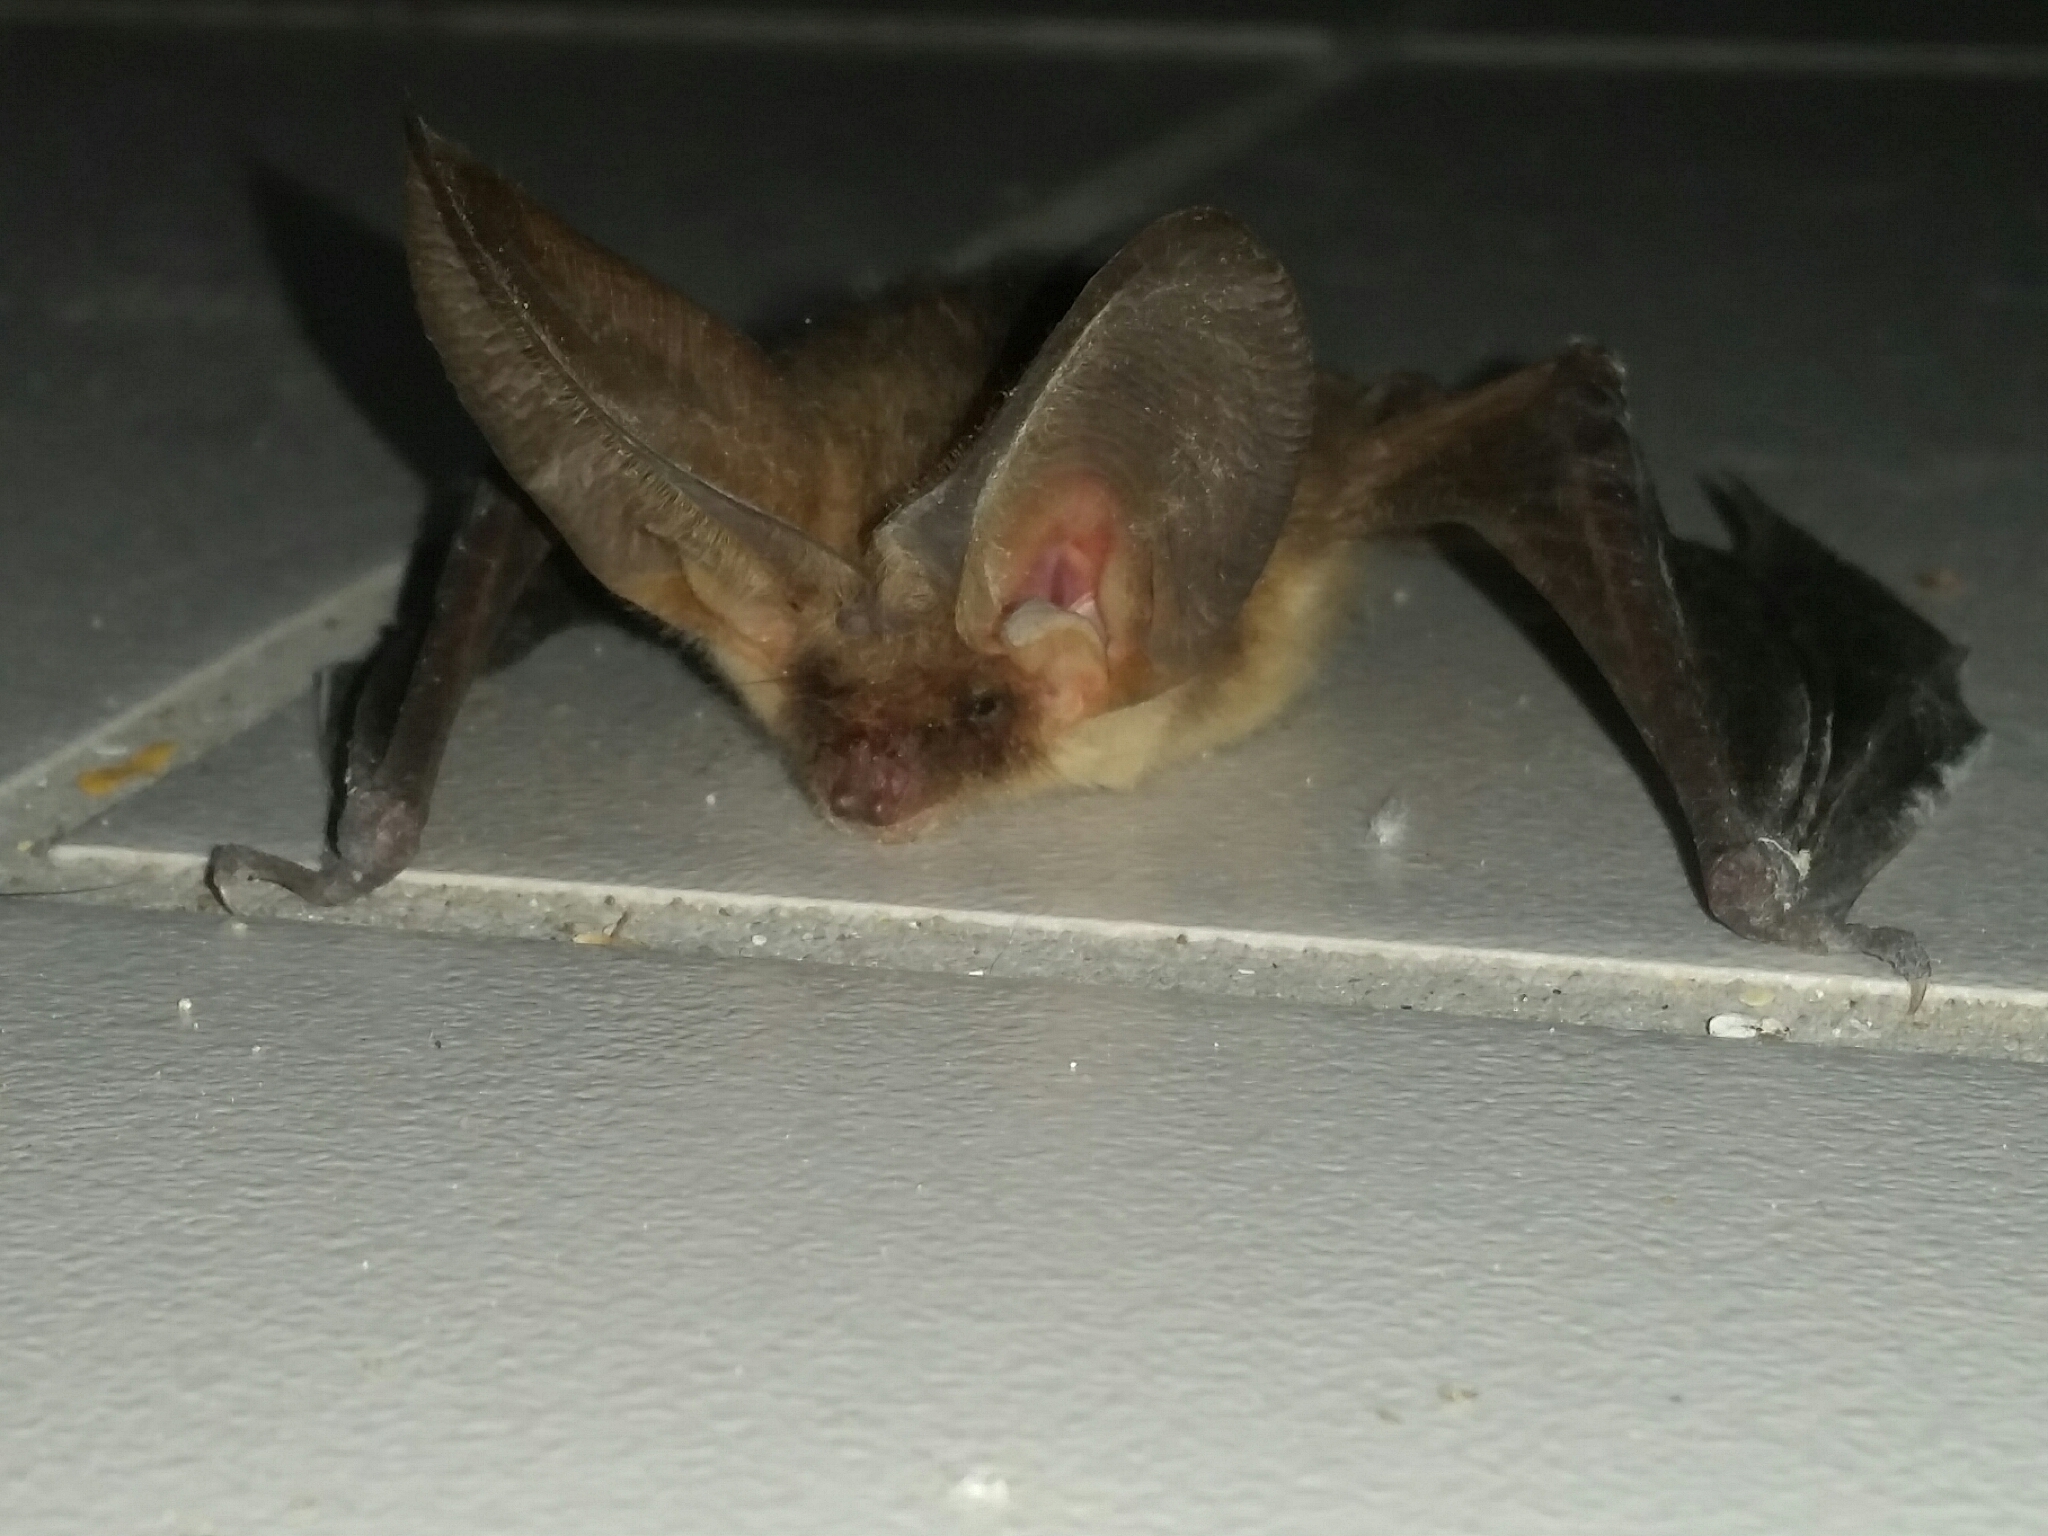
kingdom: Animalia
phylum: Chordata
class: Mammalia
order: Chiroptera
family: Vespertilionidae
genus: Plecotus
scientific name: Plecotus auritus
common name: Brown long-eared bat
